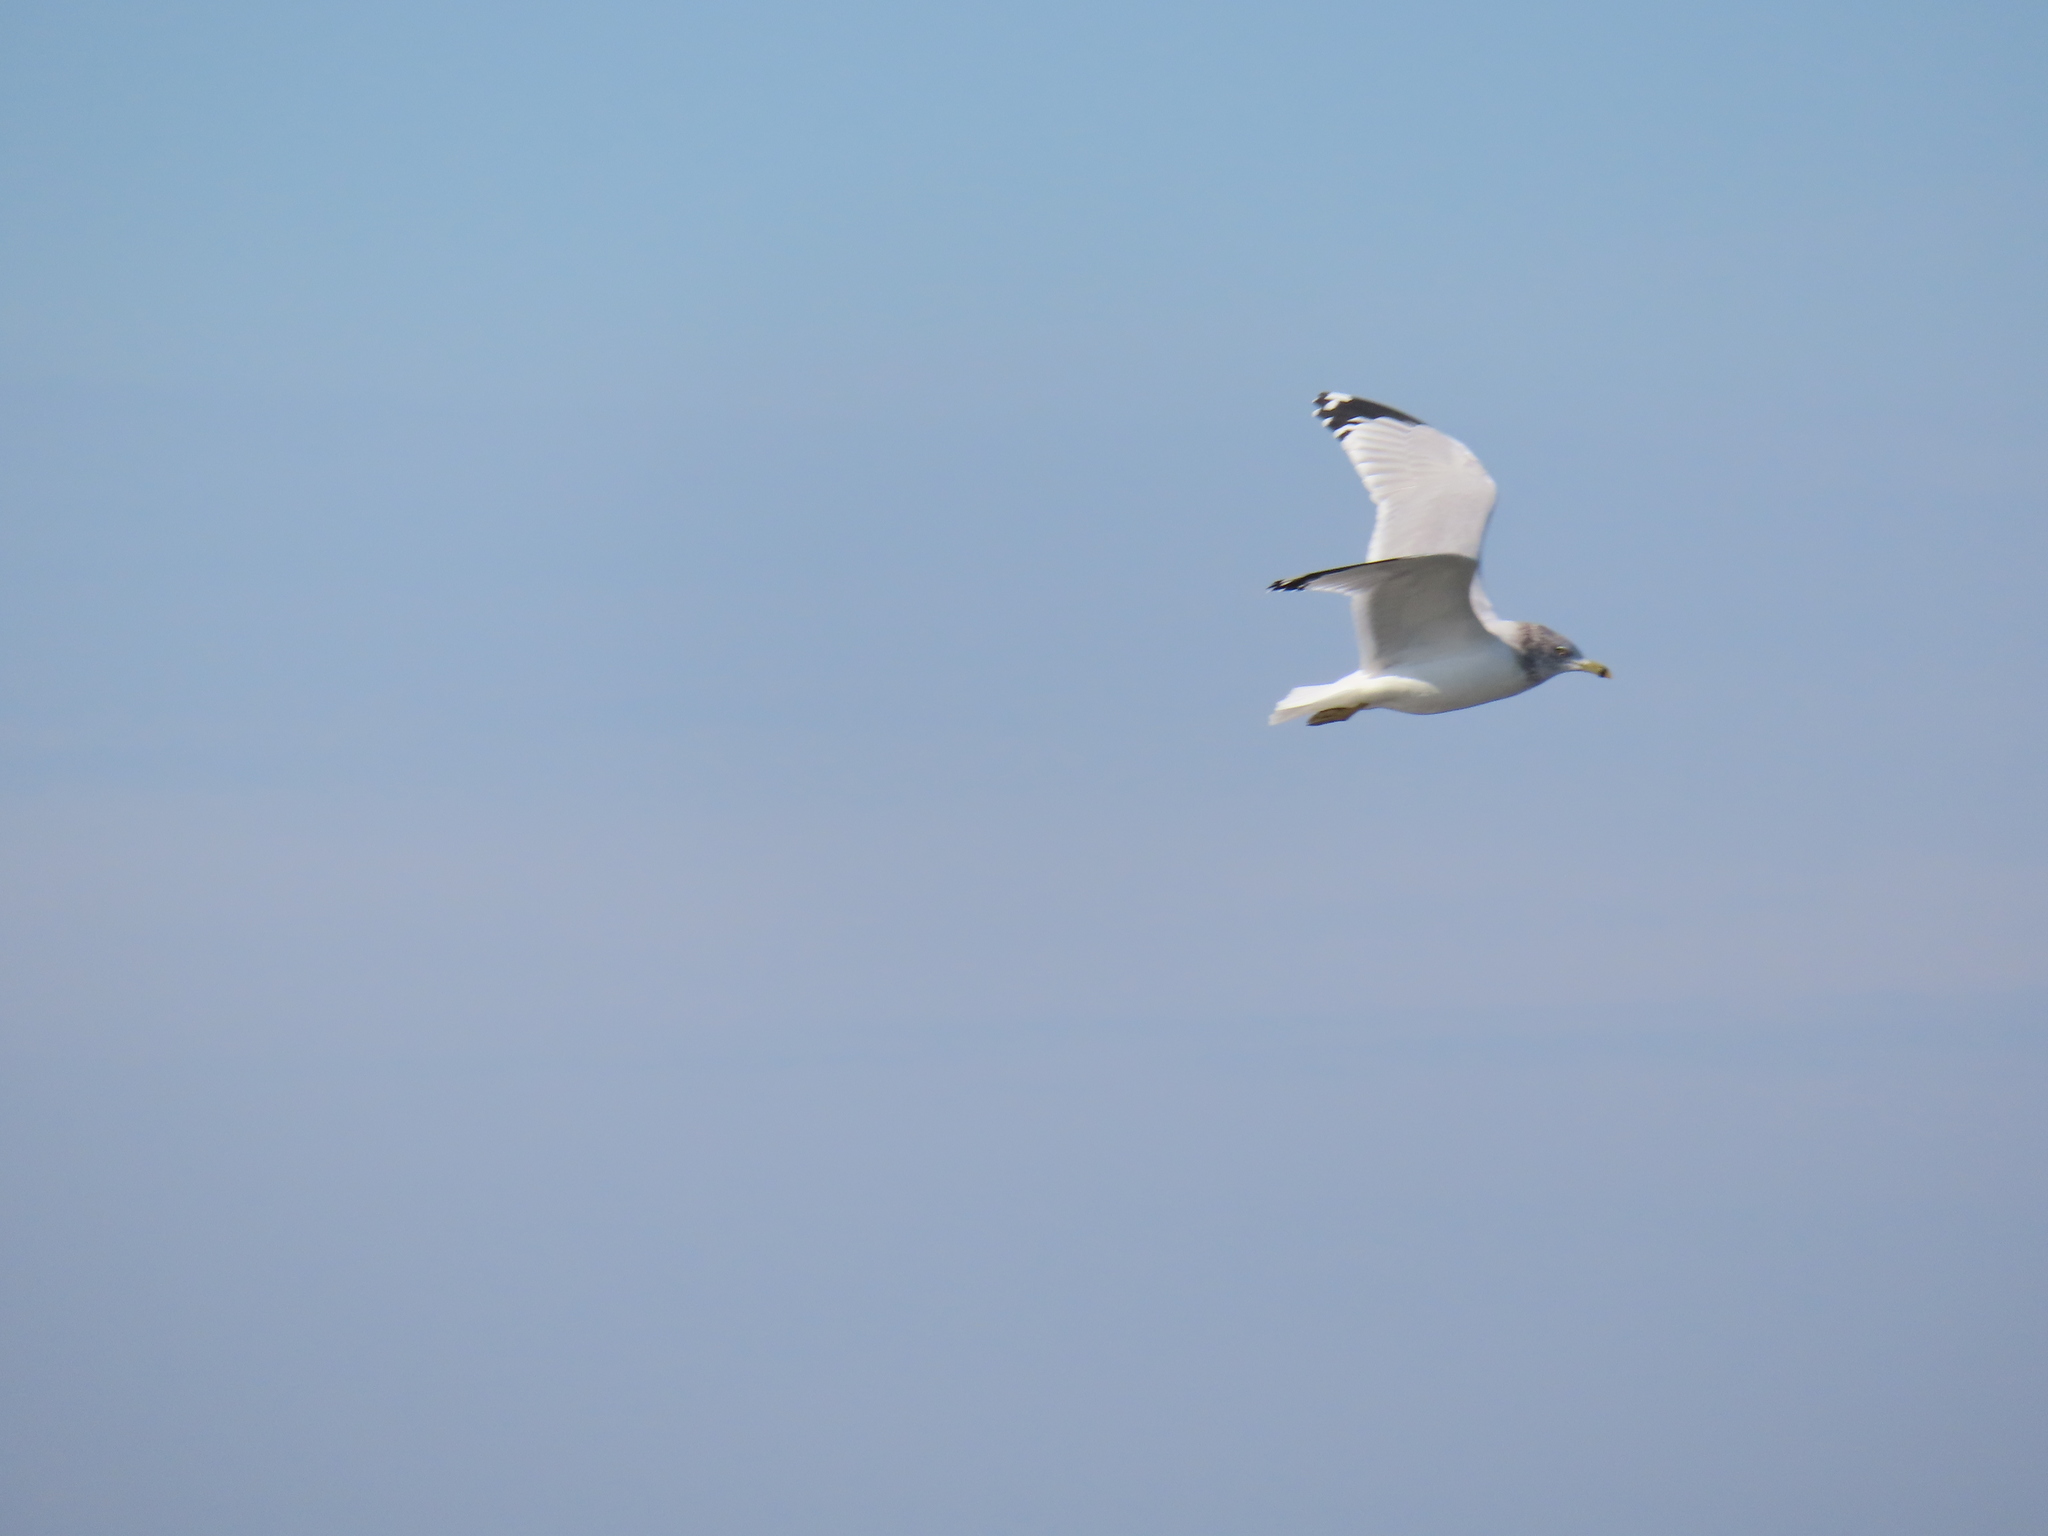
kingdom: Animalia
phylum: Chordata
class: Aves
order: Charadriiformes
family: Laridae
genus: Larus
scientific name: Larus delawarensis
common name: Ring-billed gull
